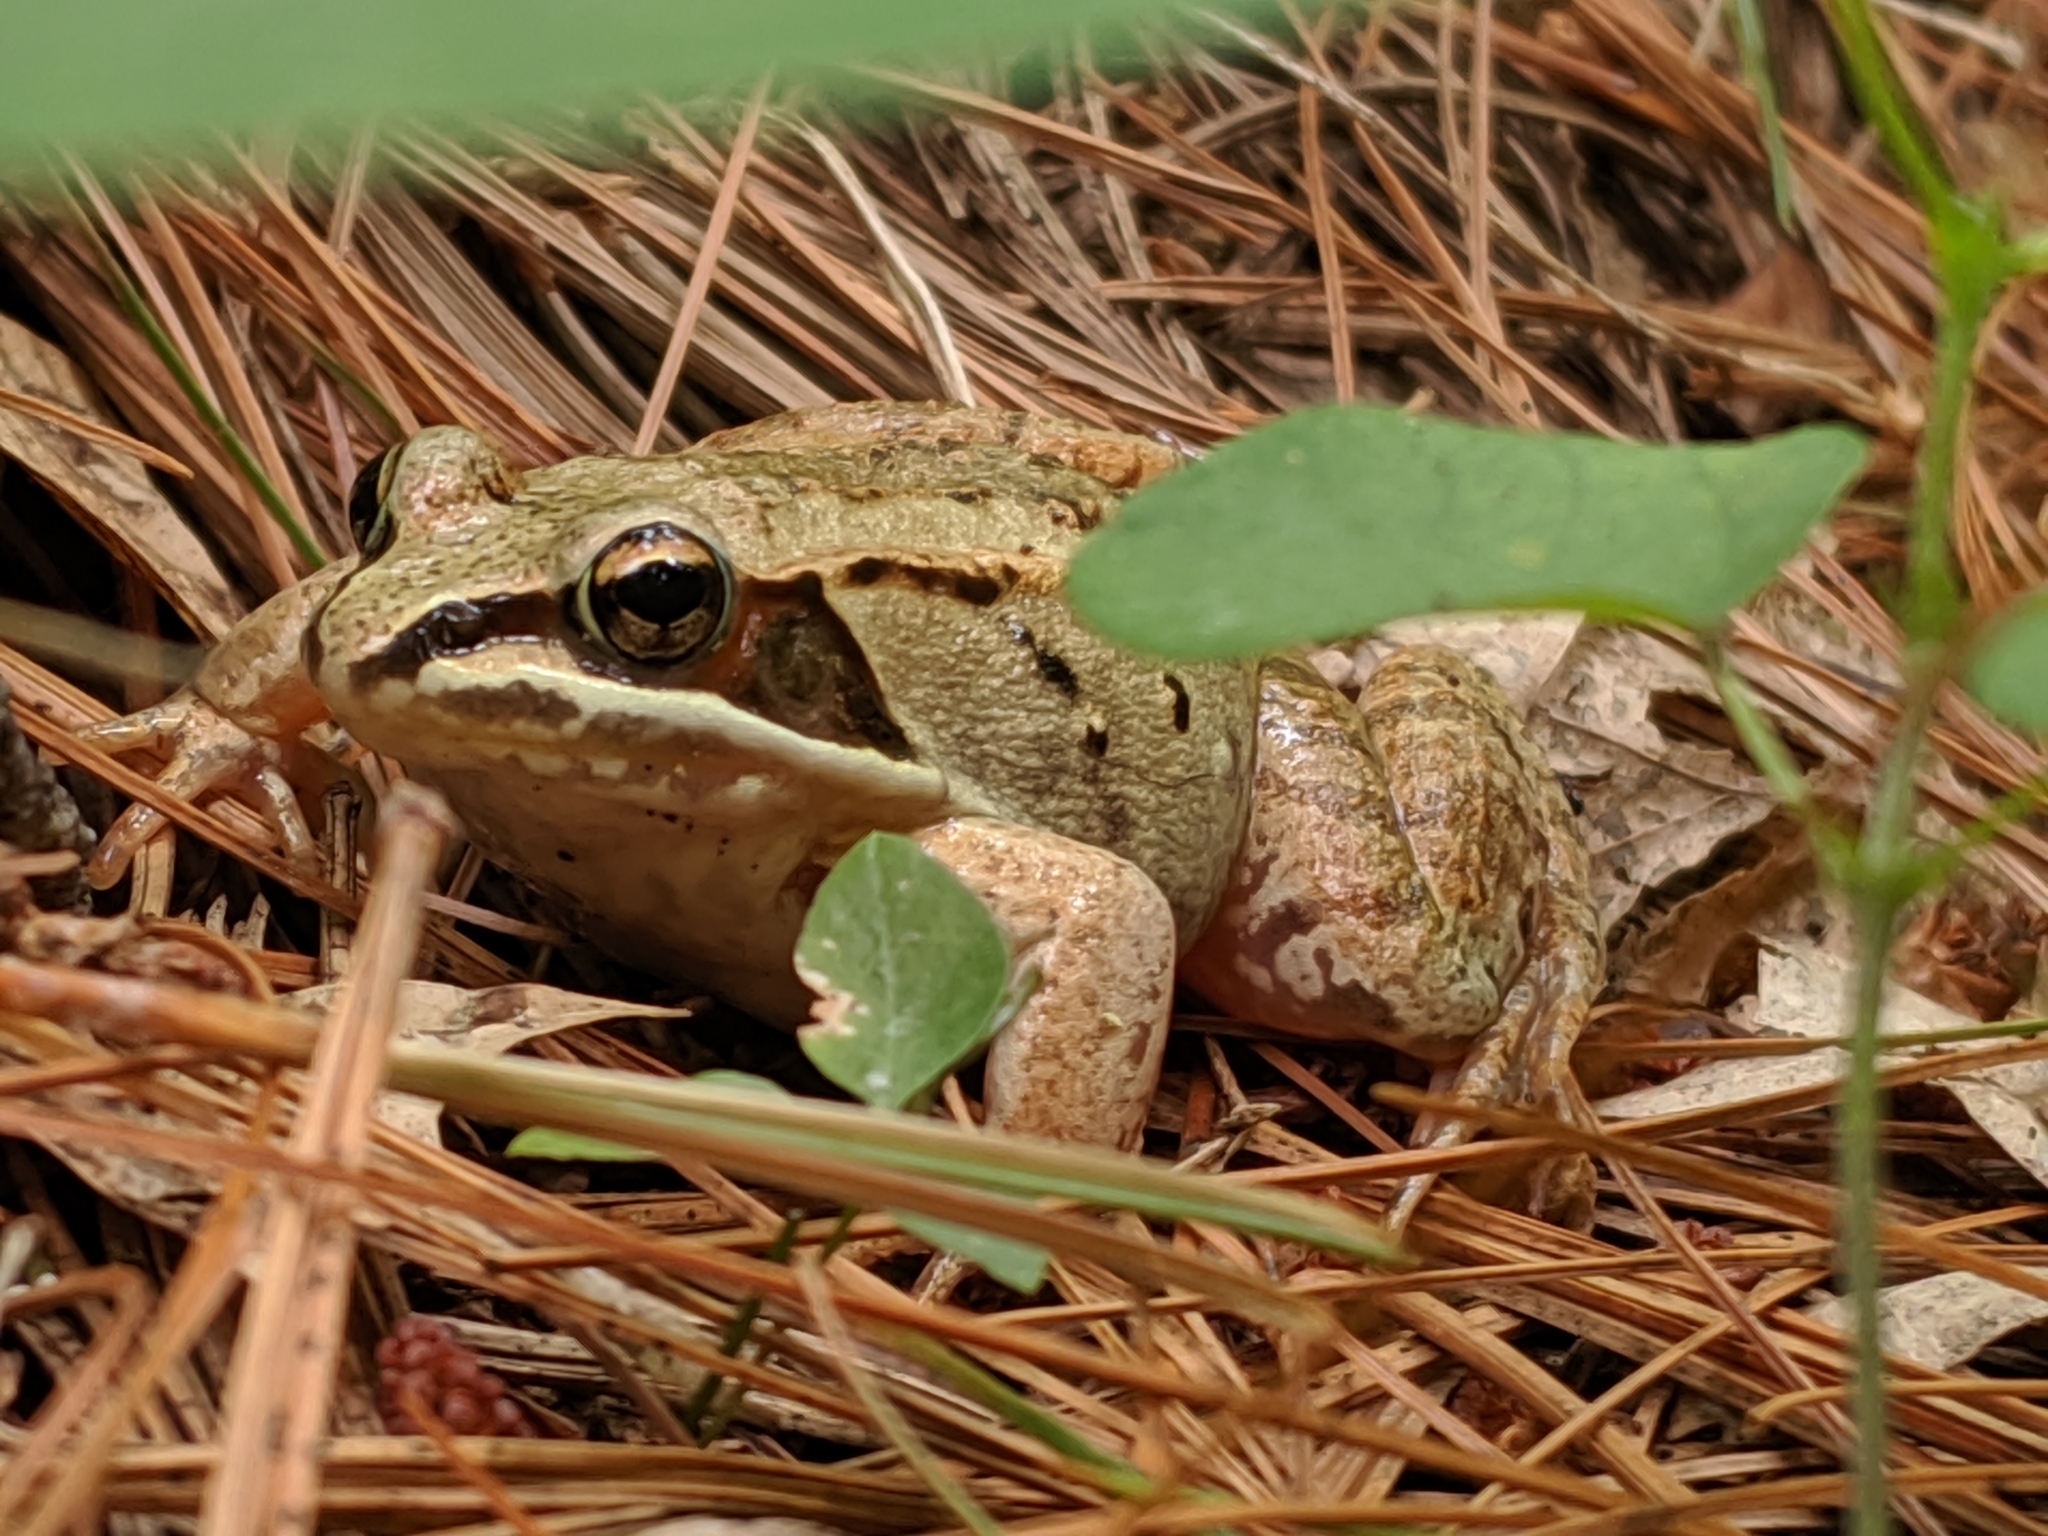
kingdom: Animalia
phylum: Chordata
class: Amphibia
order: Anura
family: Ranidae
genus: Lithobates
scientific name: Lithobates sylvaticus
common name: Wood frog
